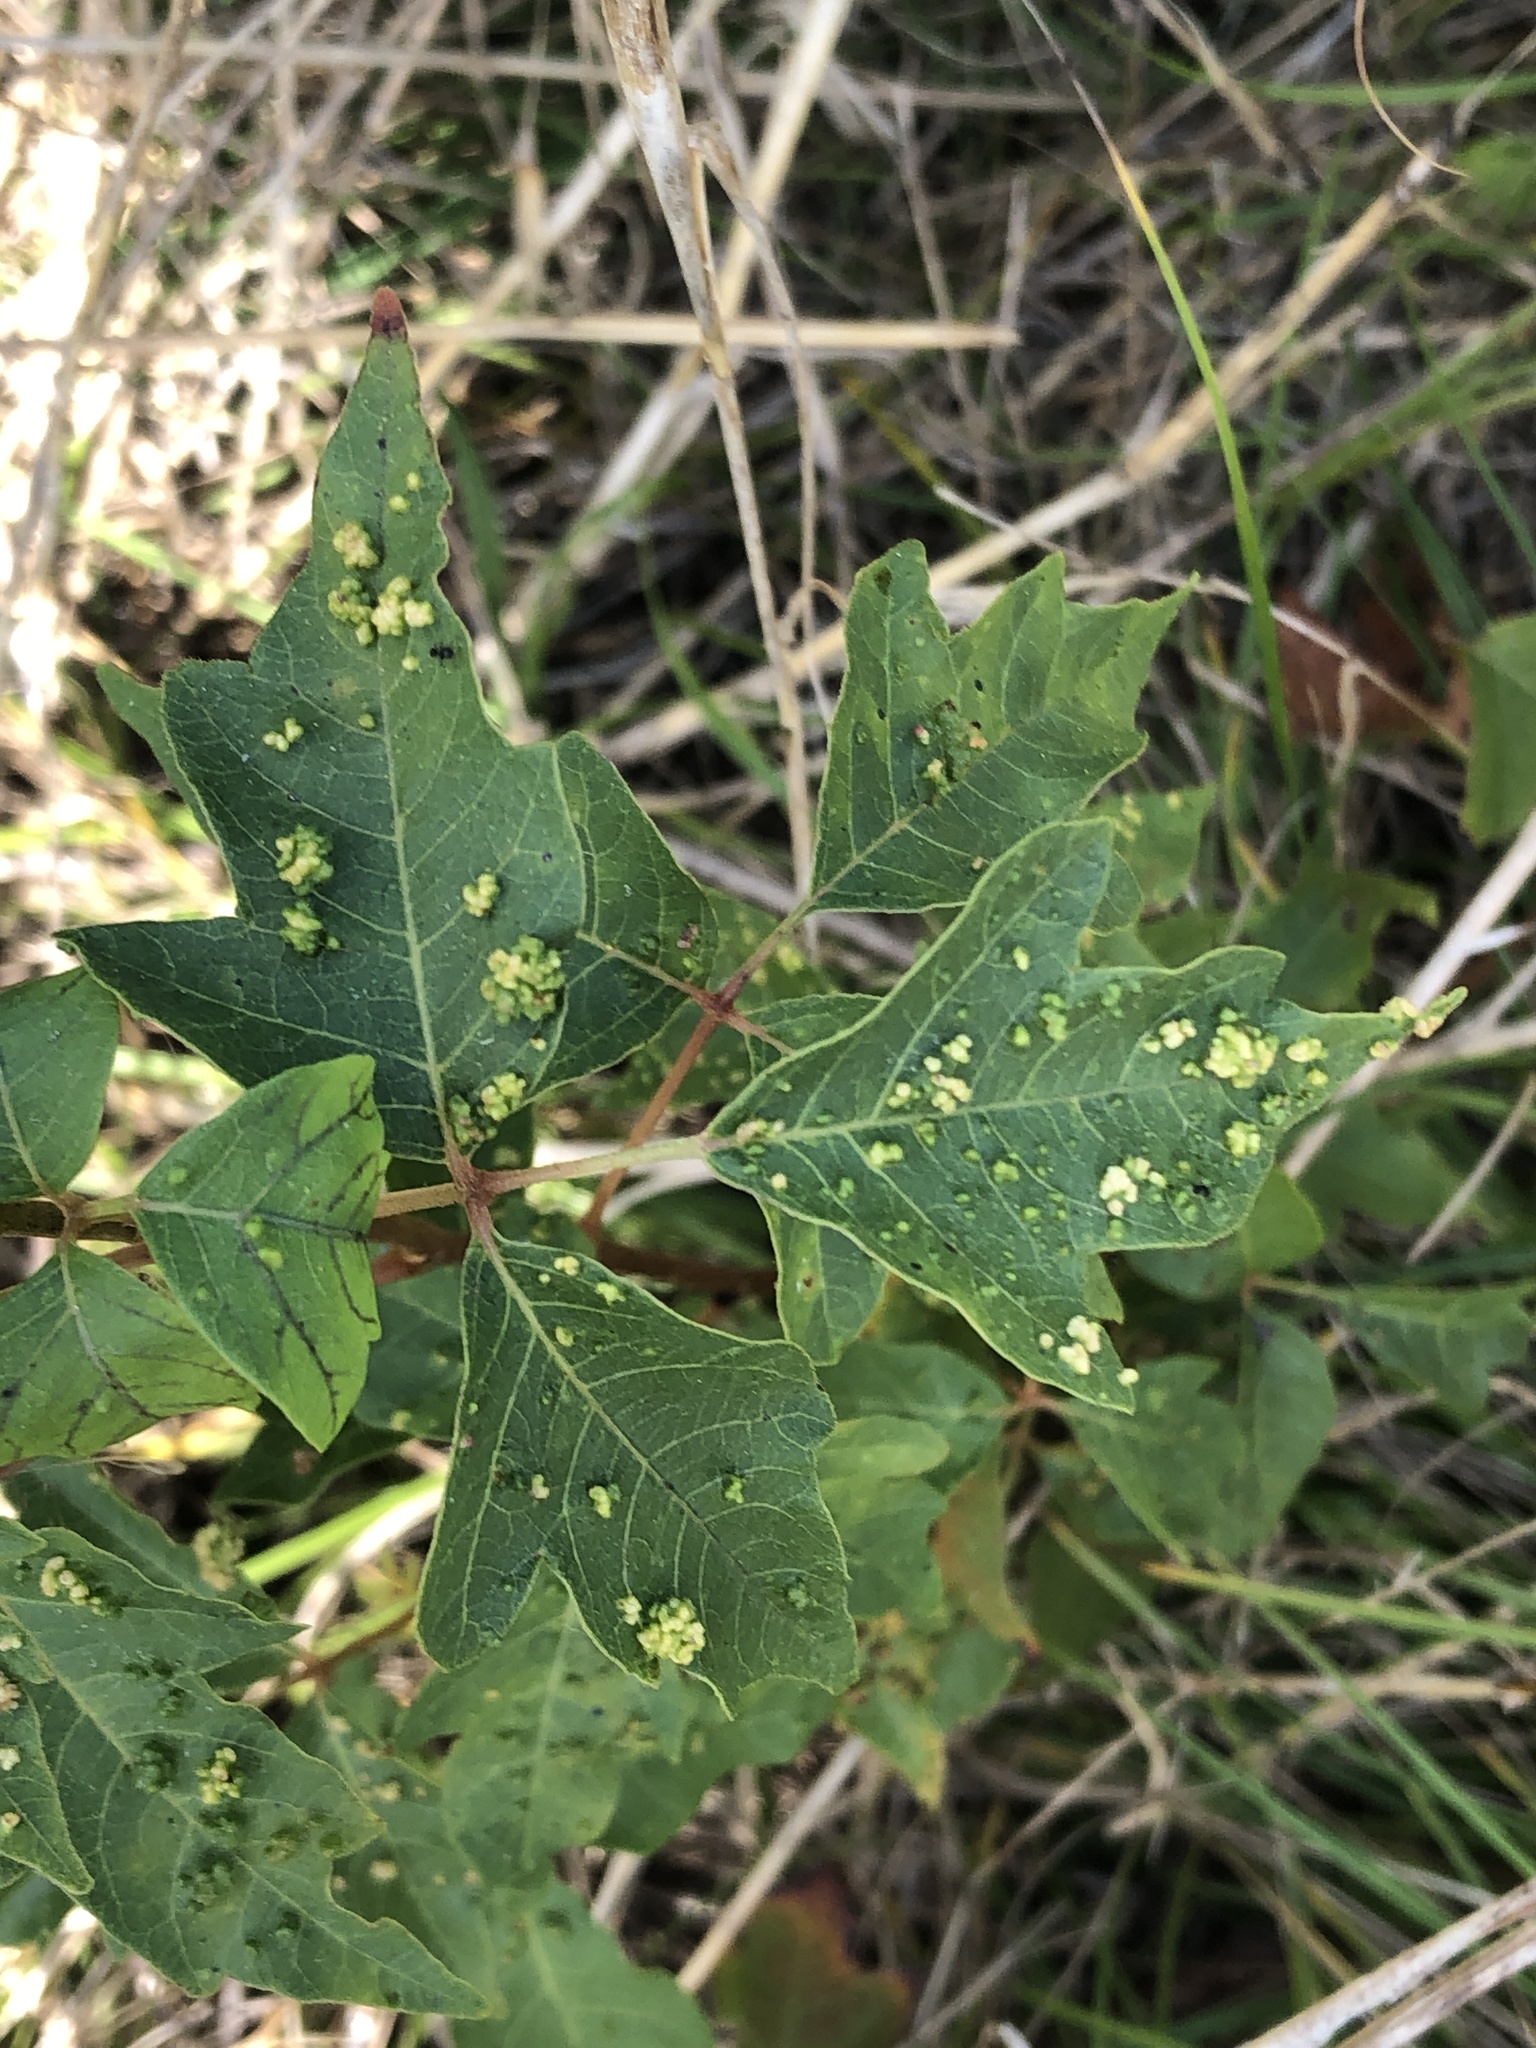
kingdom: Animalia
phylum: Arthropoda
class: Arachnida
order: Trombidiformes
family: Eriophyidae
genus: Aculops
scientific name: Aculops
